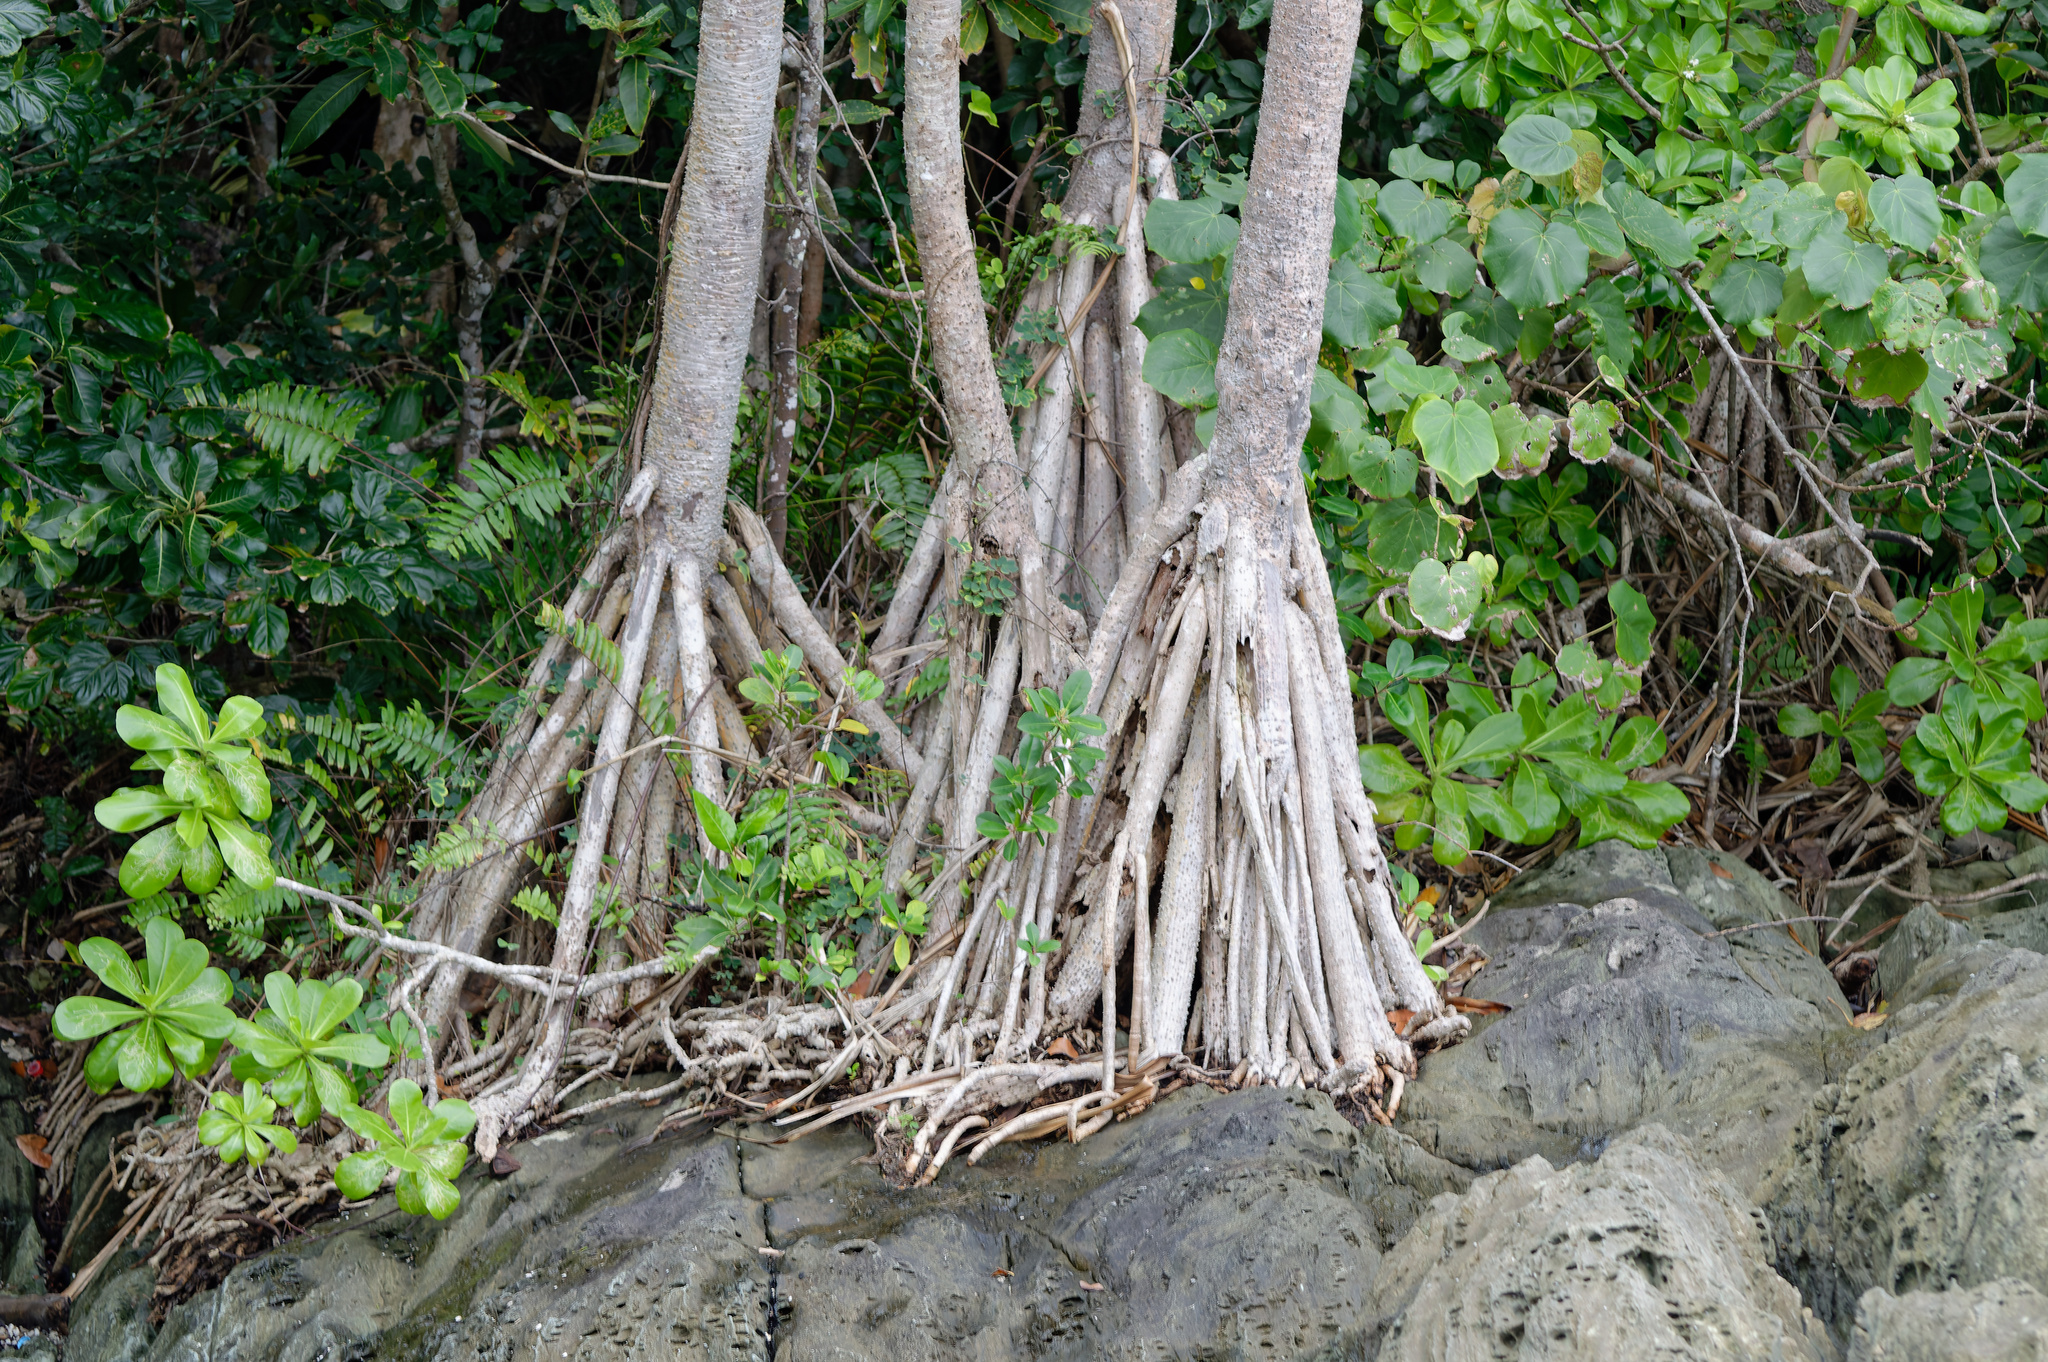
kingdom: Plantae
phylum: Tracheophyta
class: Liliopsida
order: Pandanales
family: Pandanaceae
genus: Pandanus
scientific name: Pandanus tectorius
